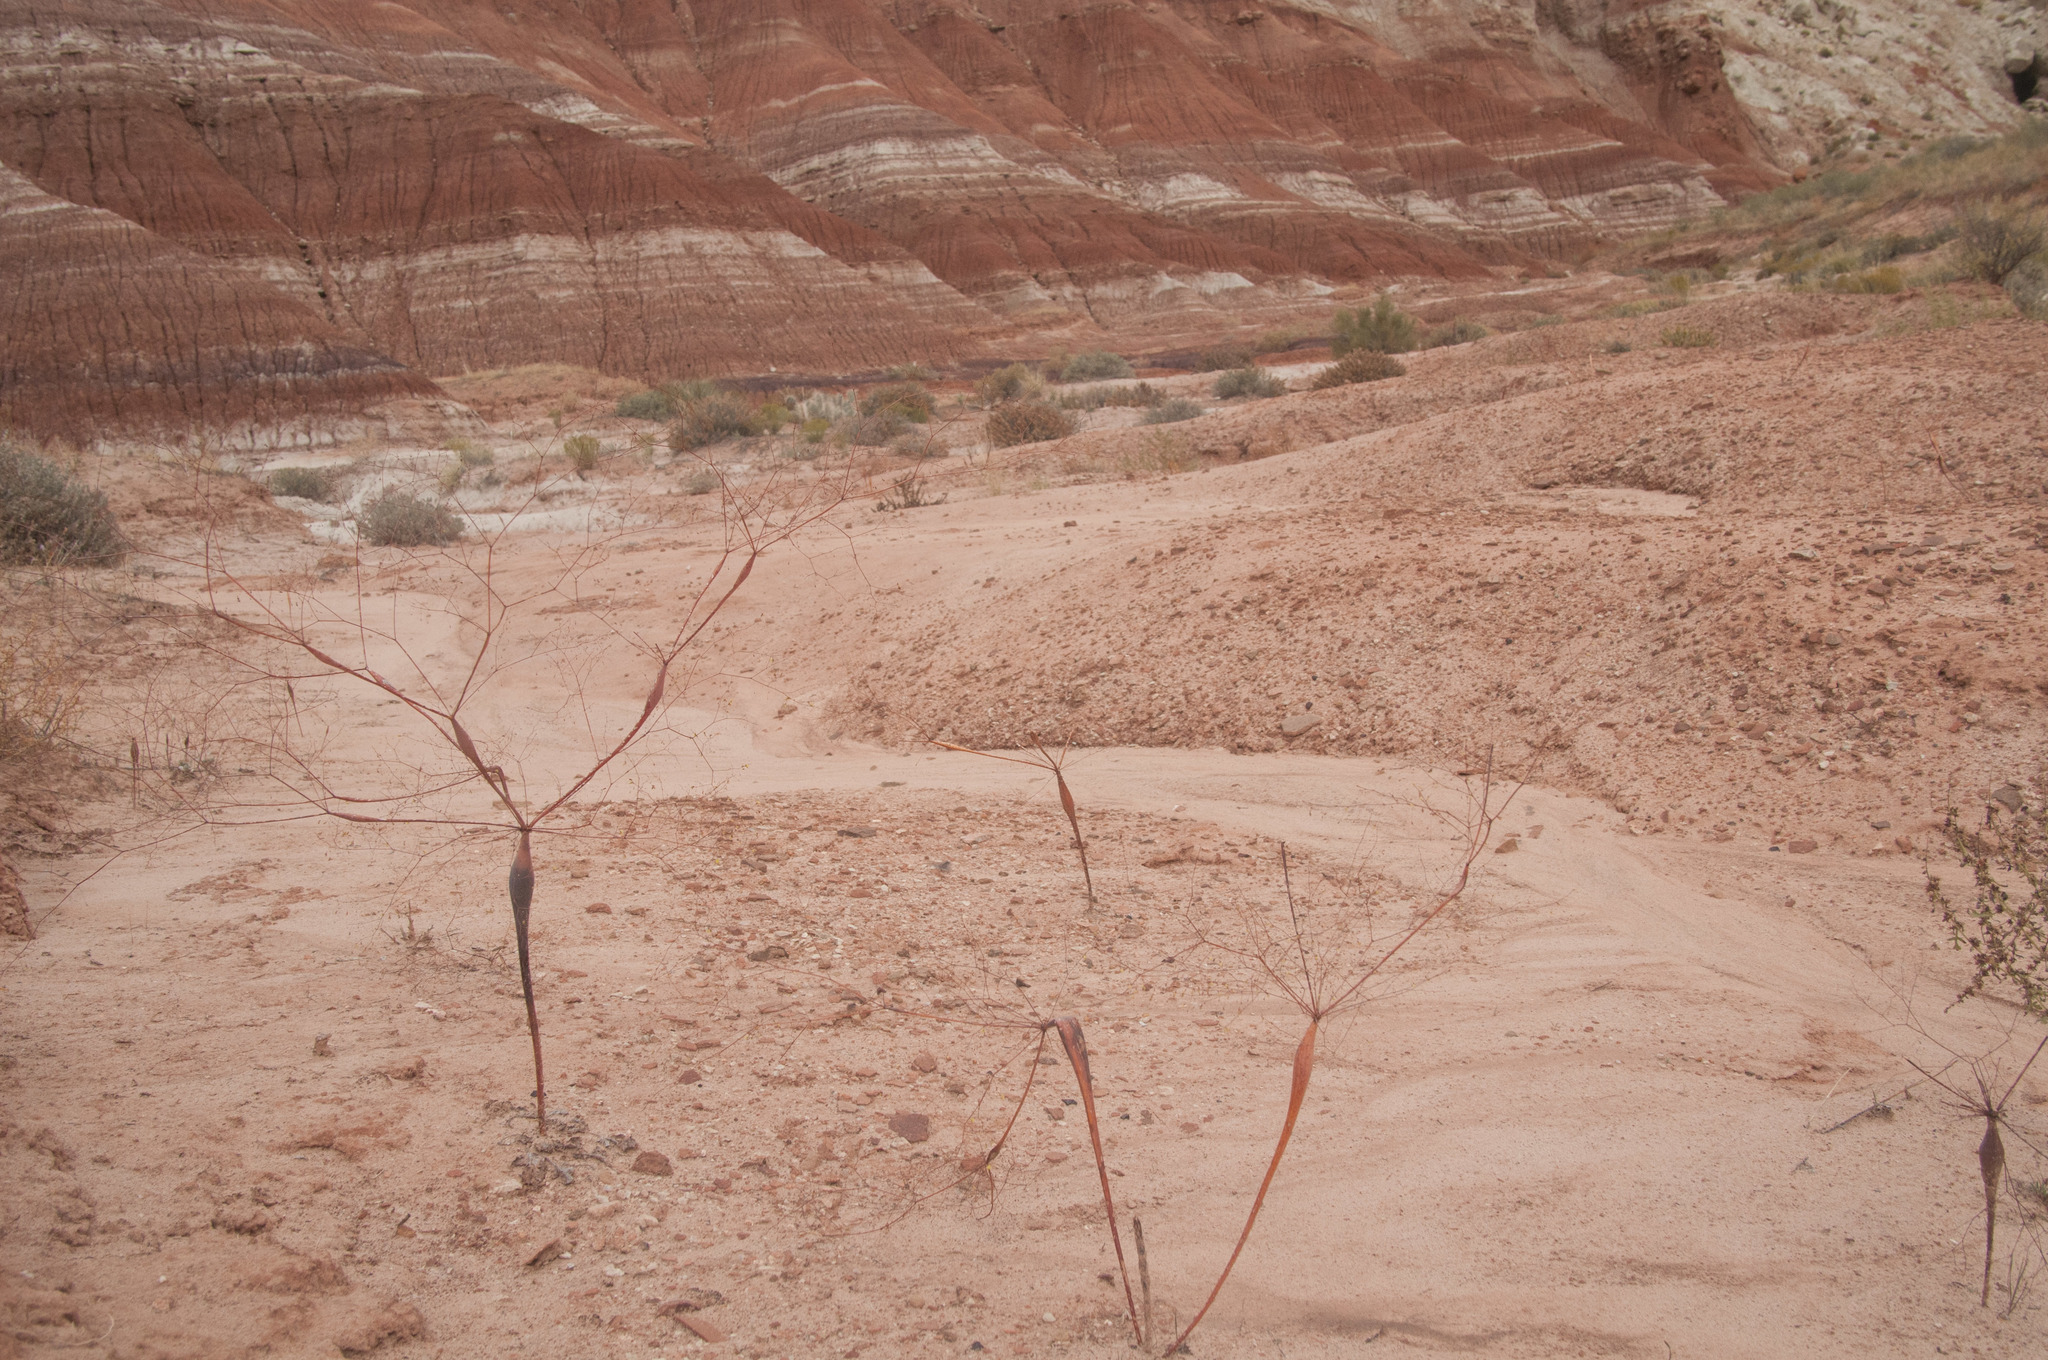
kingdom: Plantae
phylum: Tracheophyta
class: Magnoliopsida
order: Caryophyllales
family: Polygonaceae
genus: Eriogonum
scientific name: Eriogonum inflatum
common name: Desert trumpet
